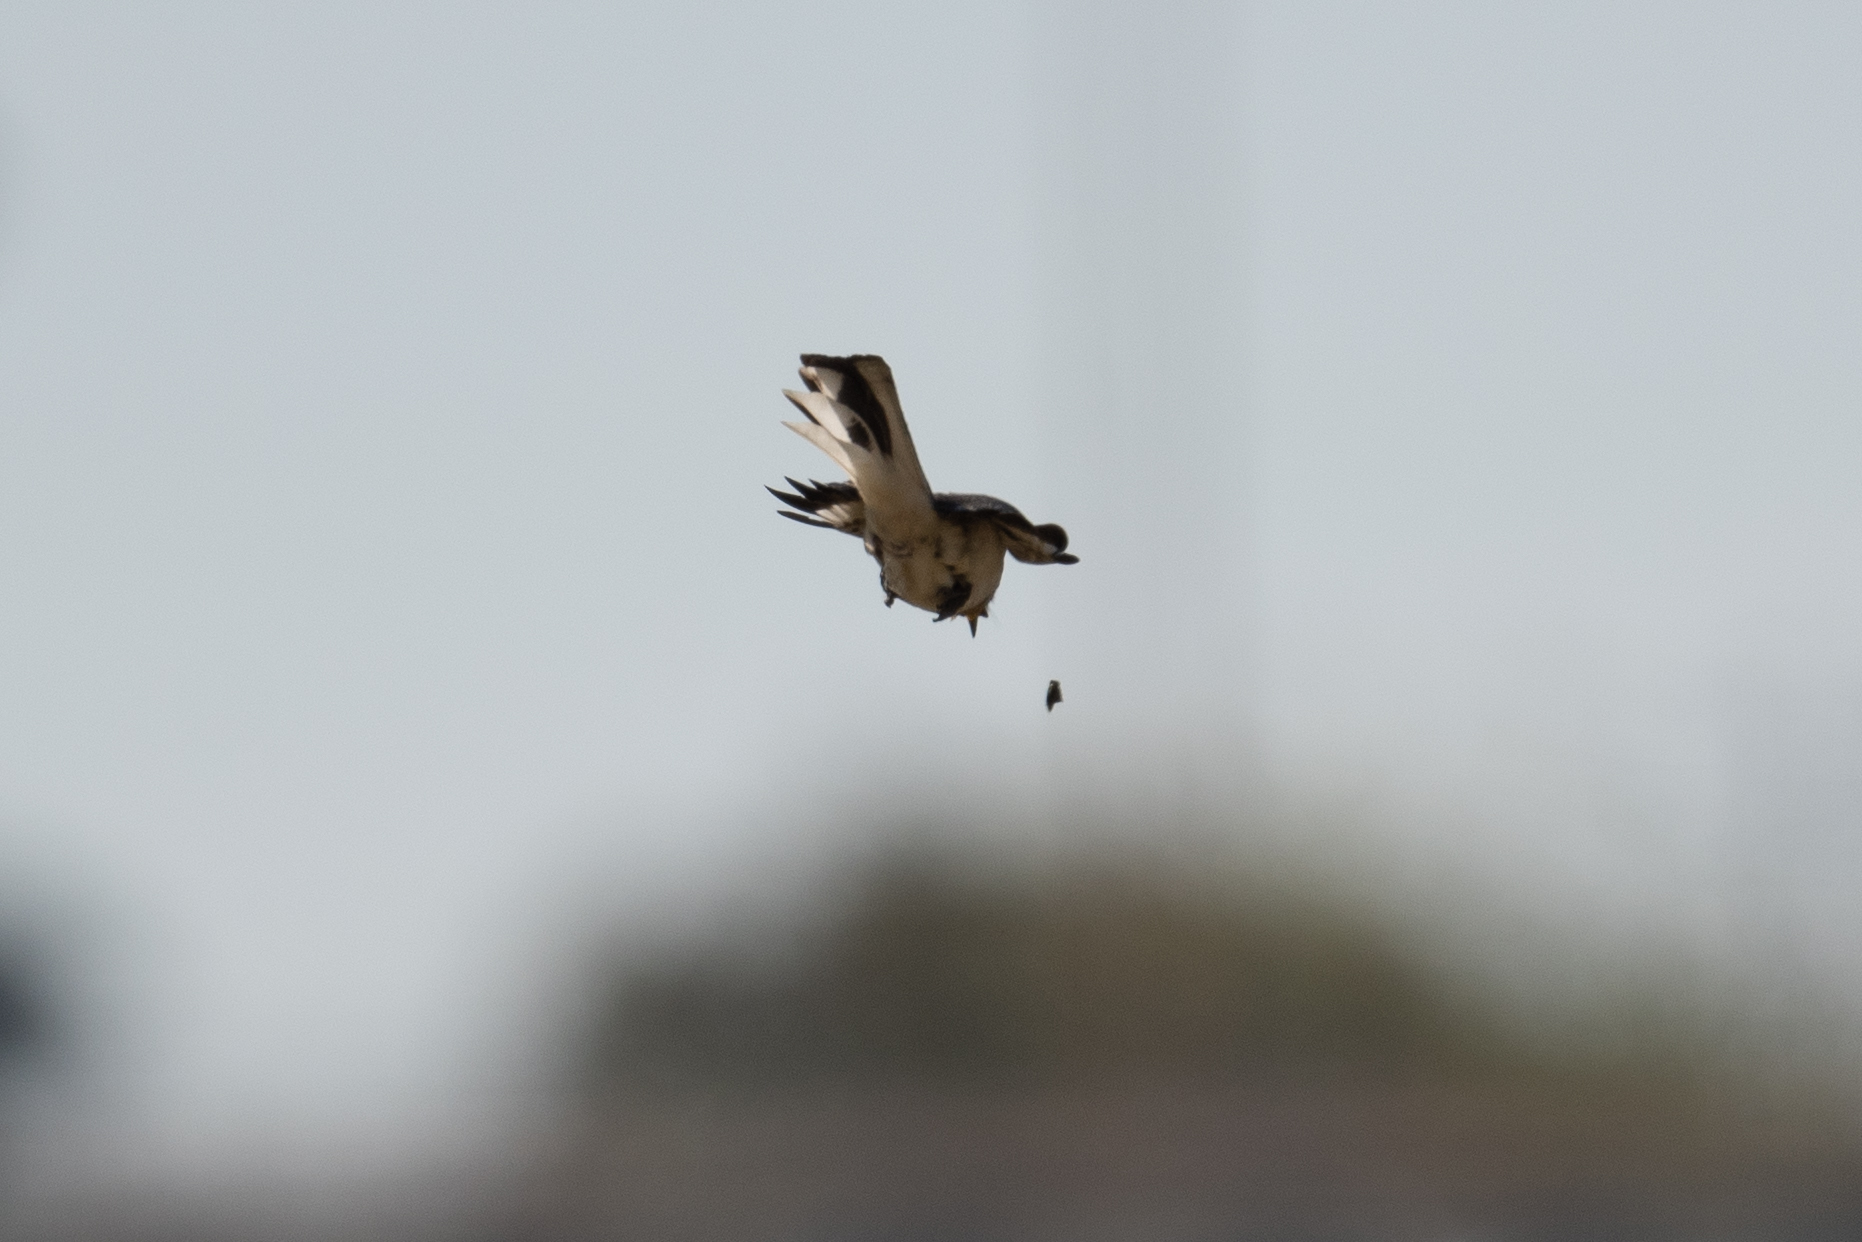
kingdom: Animalia
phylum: Chordata
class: Aves
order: Passeriformes
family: Mimidae
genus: Mimus
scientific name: Mimus polyglottos
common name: Northern mockingbird
